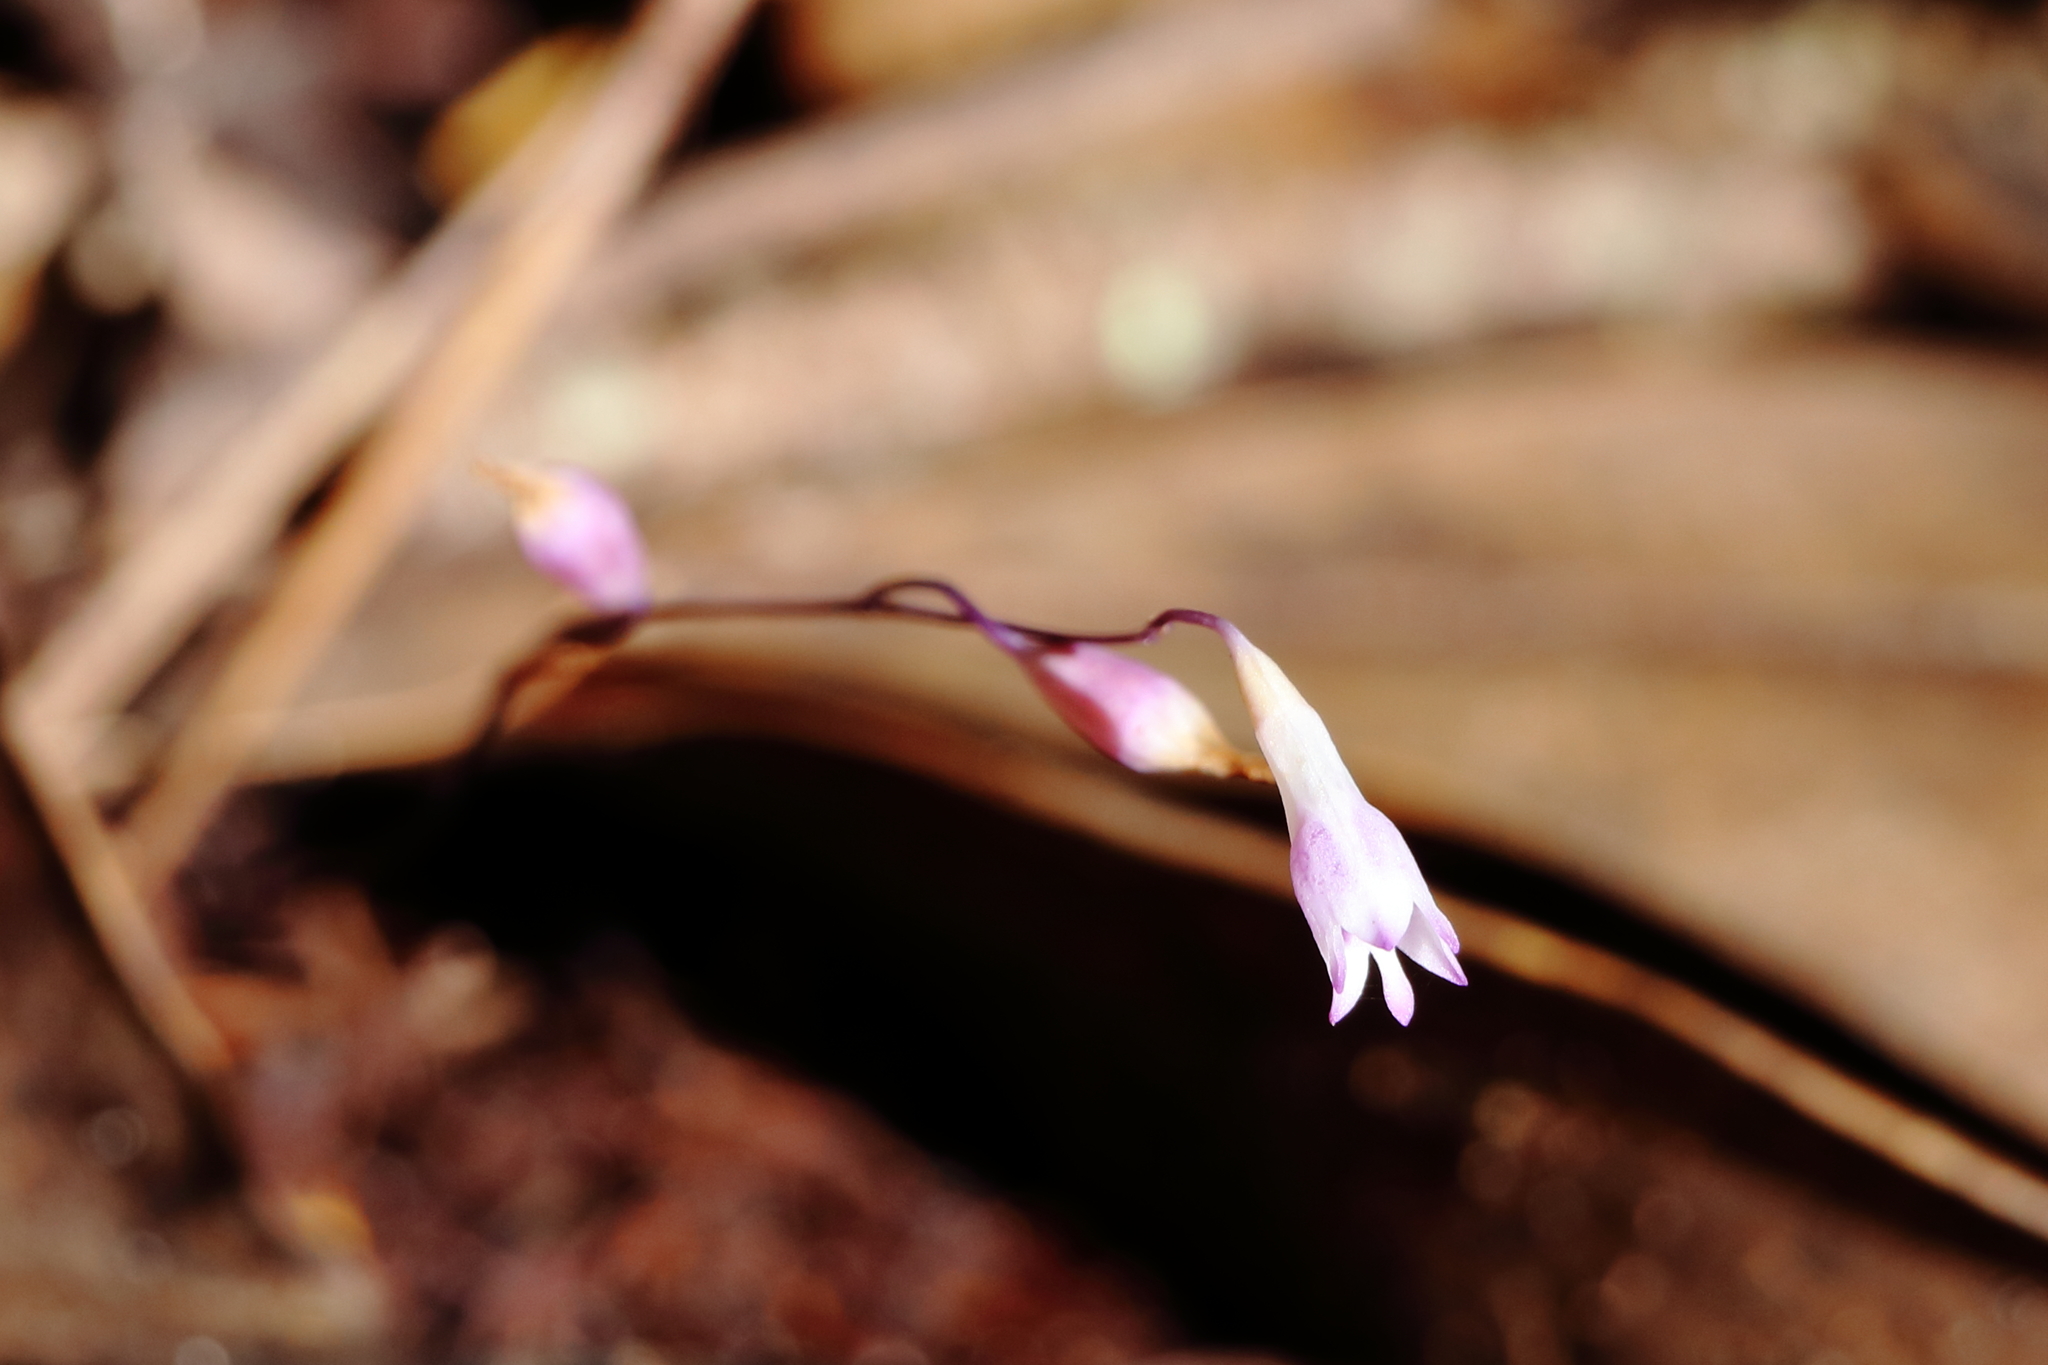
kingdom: Plantae
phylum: Tracheophyta
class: Liliopsida
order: Dioscoreales
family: Burmanniaceae
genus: Apteria
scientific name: Apteria aphylla
